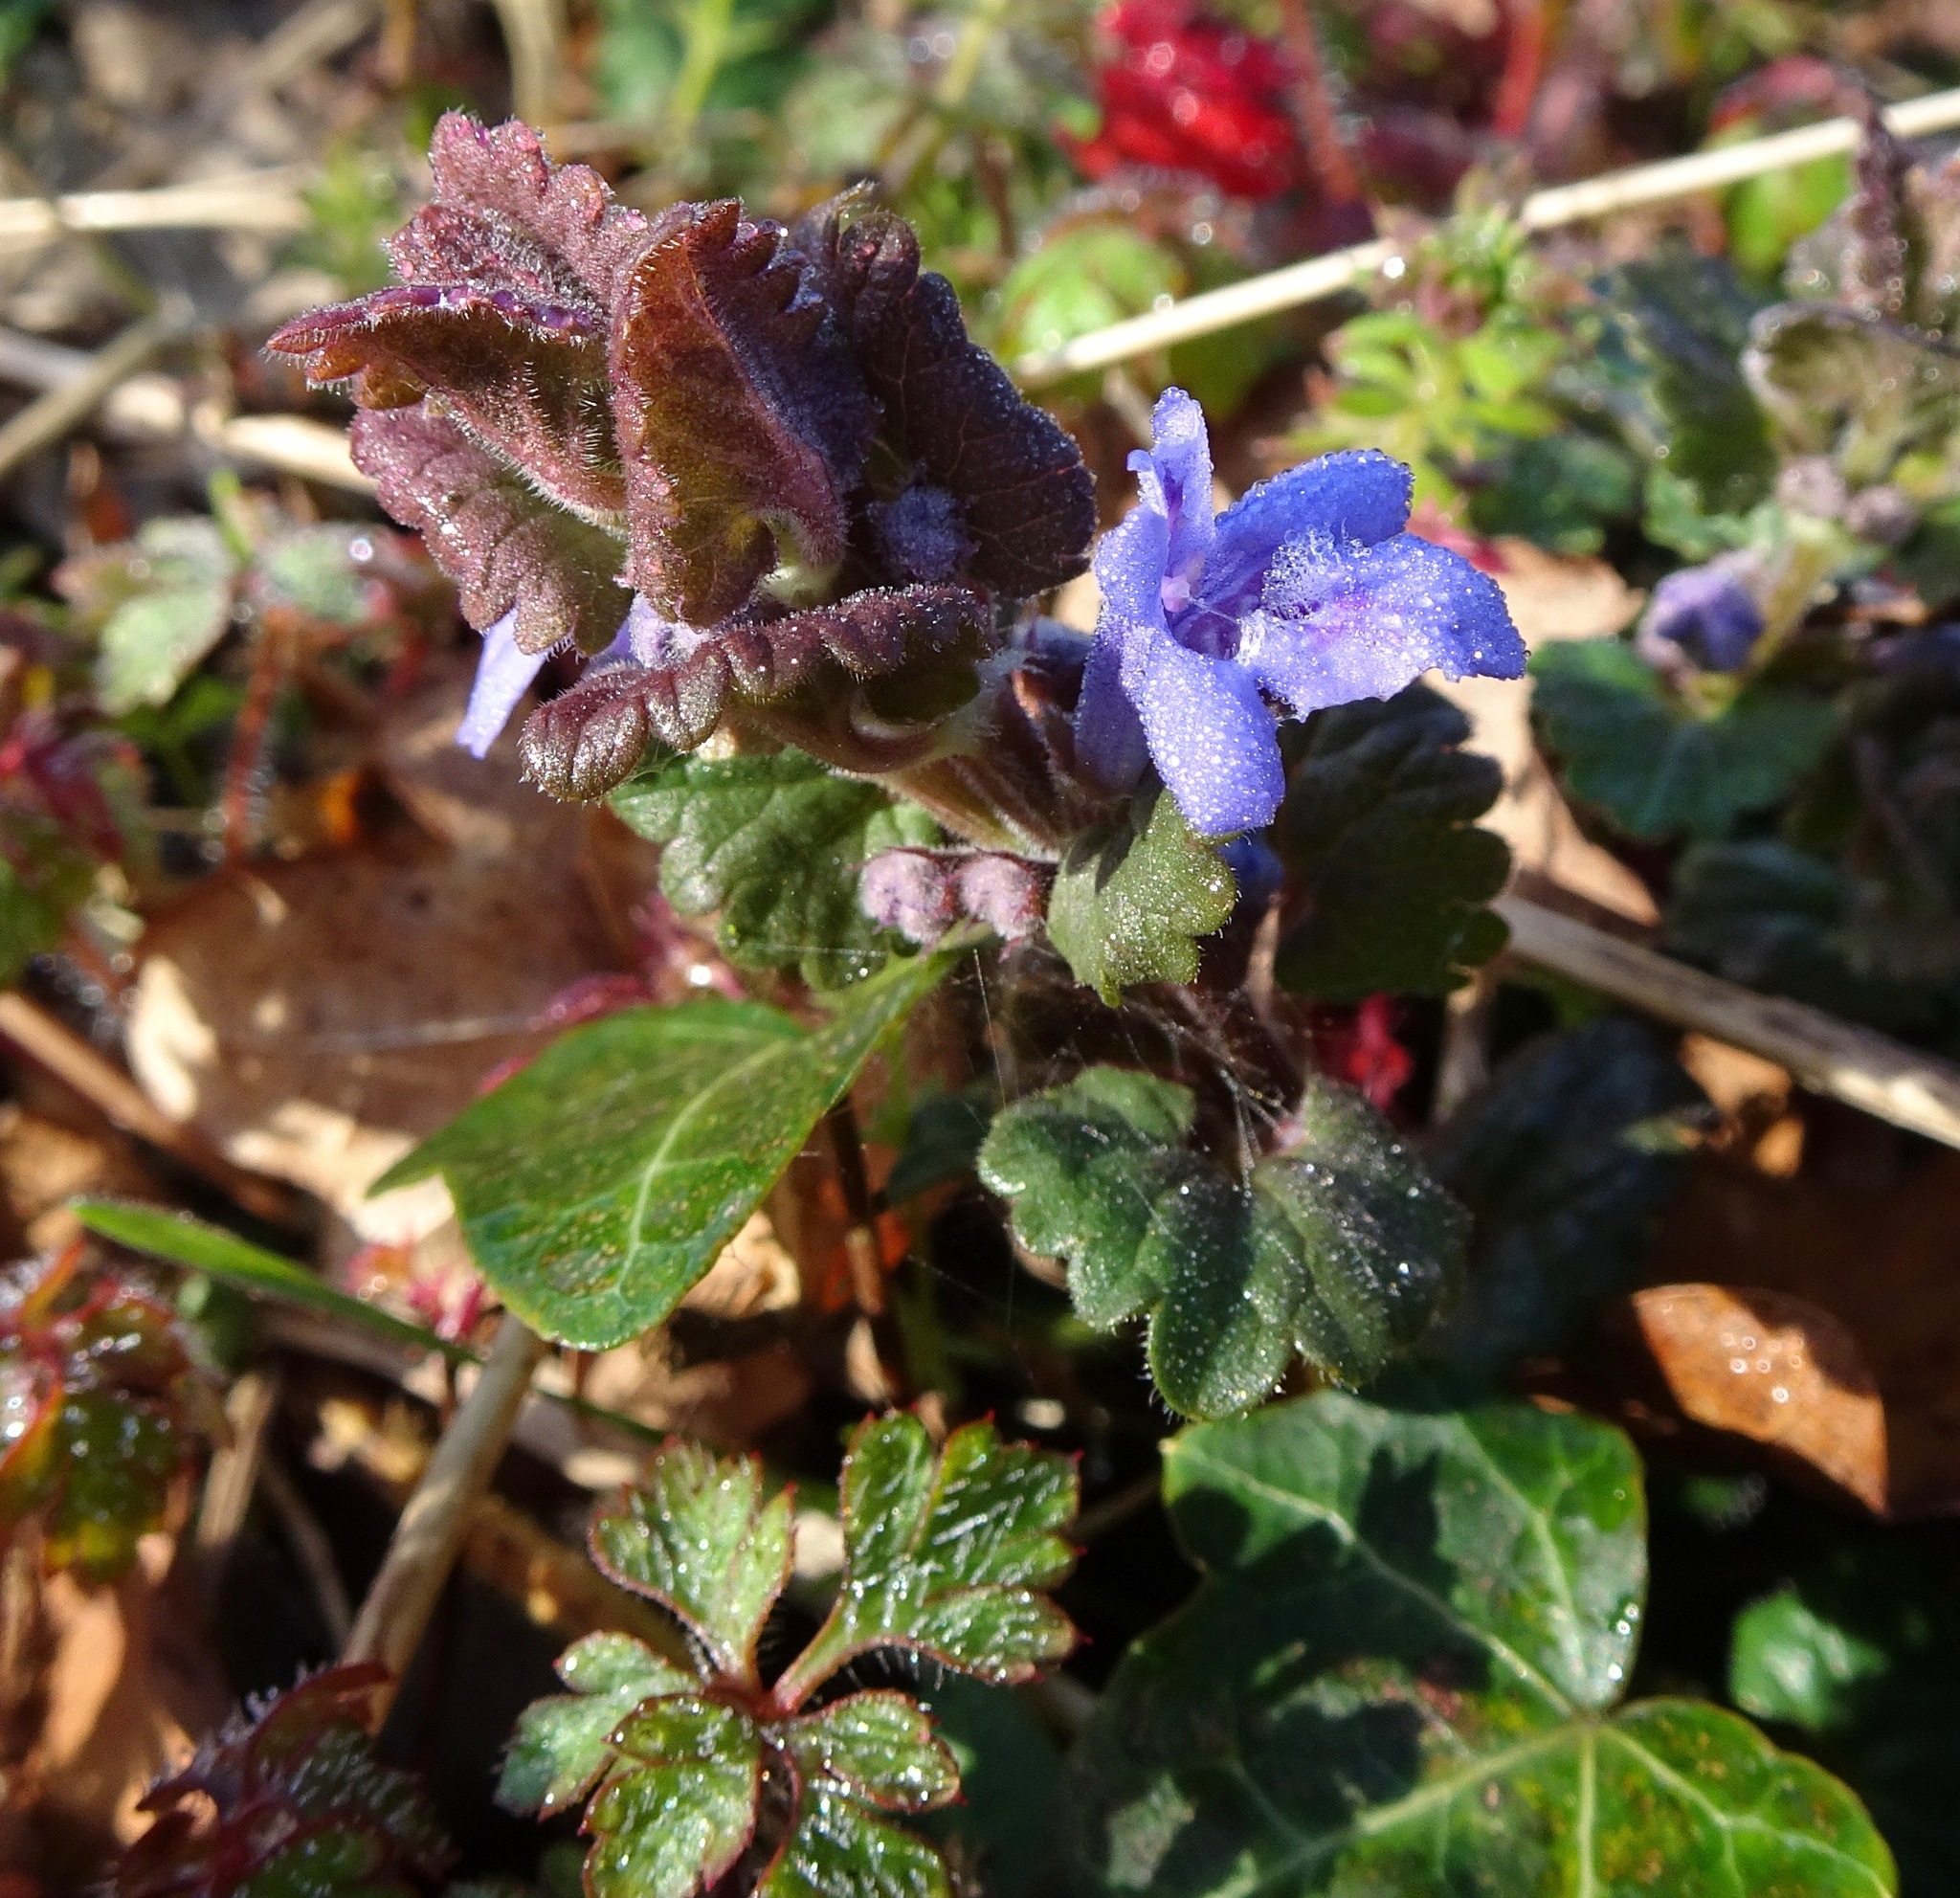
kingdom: Plantae
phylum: Tracheophyta
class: Magnoliopsida
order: Lamiales
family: Lamiaceae
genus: Glechoma
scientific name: Glechoma hederacea
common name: Ground ivy
